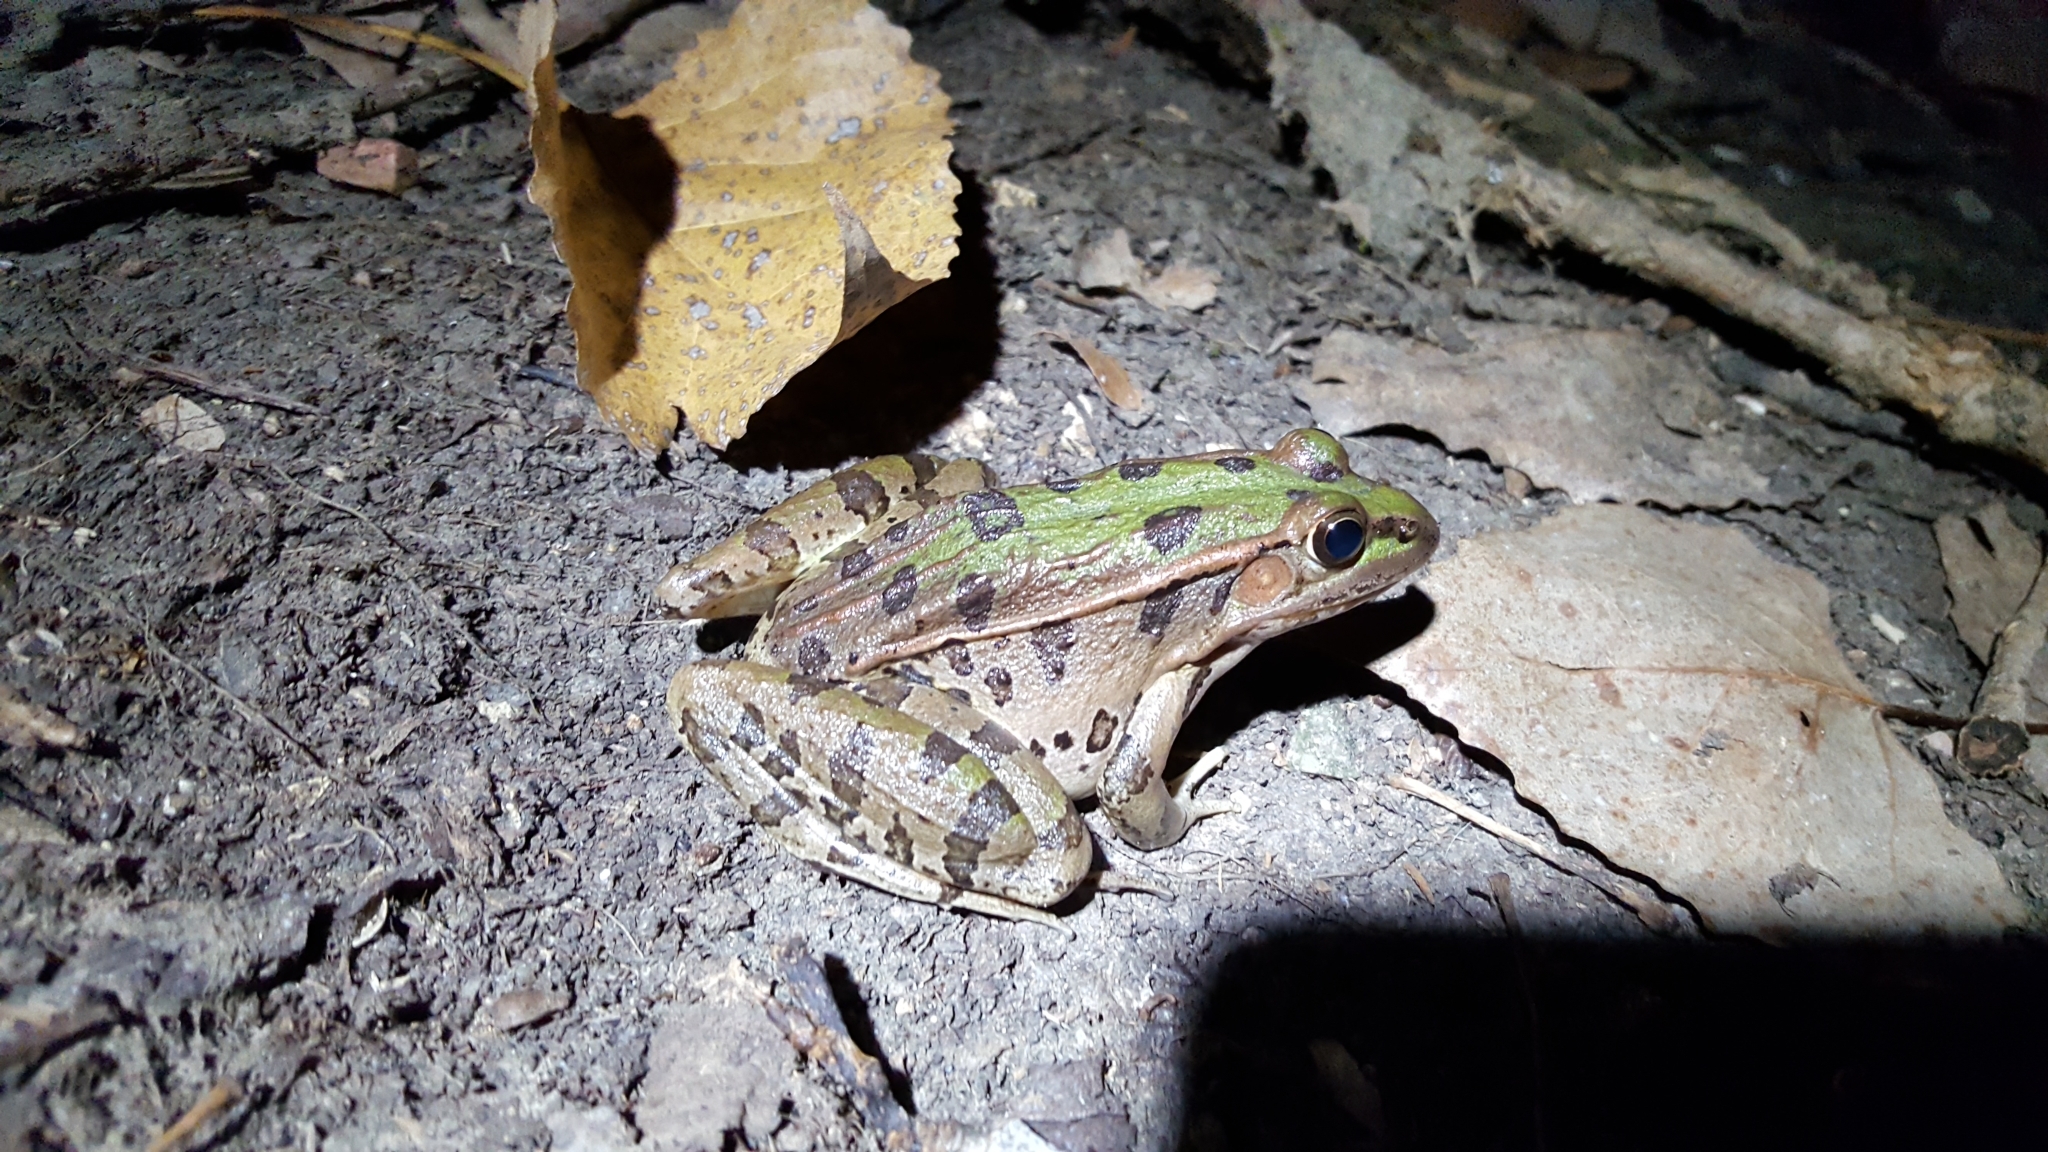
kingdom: Animalia
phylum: Chordata
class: Amphibia
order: Anura
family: Ranidae
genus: Lithobates
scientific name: Lithobates sphenocephalus
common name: Southern leopard frog
